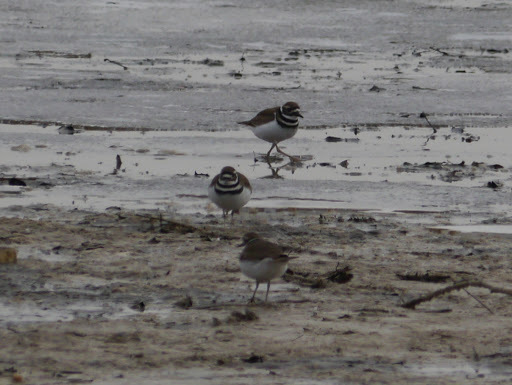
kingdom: Animalia
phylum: Chordata
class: Aves
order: Charadriiformes
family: Charadriidae
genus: Charadrius
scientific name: Charadrius vociferus
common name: Killdeer
